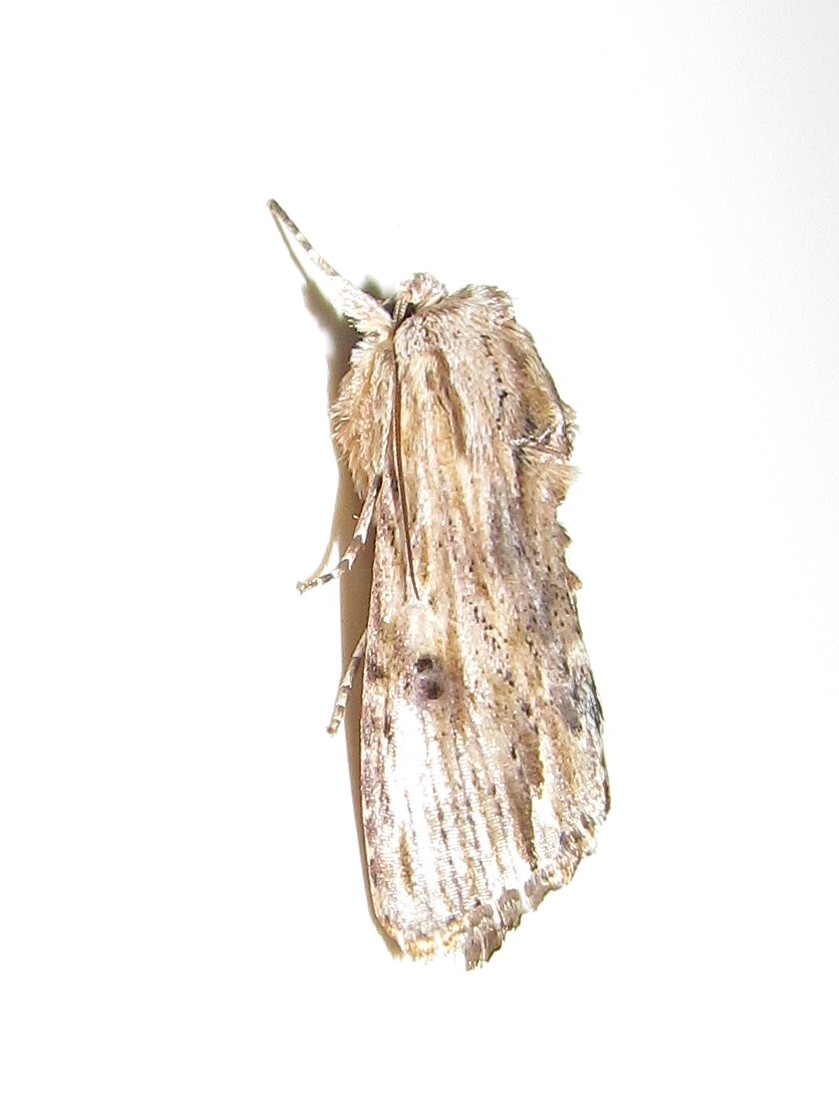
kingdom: Animalia
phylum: Arthropoda
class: Insecta
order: Lepidoptera
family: Noctuidae
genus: Spodoptera
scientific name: Spodoptera albula
